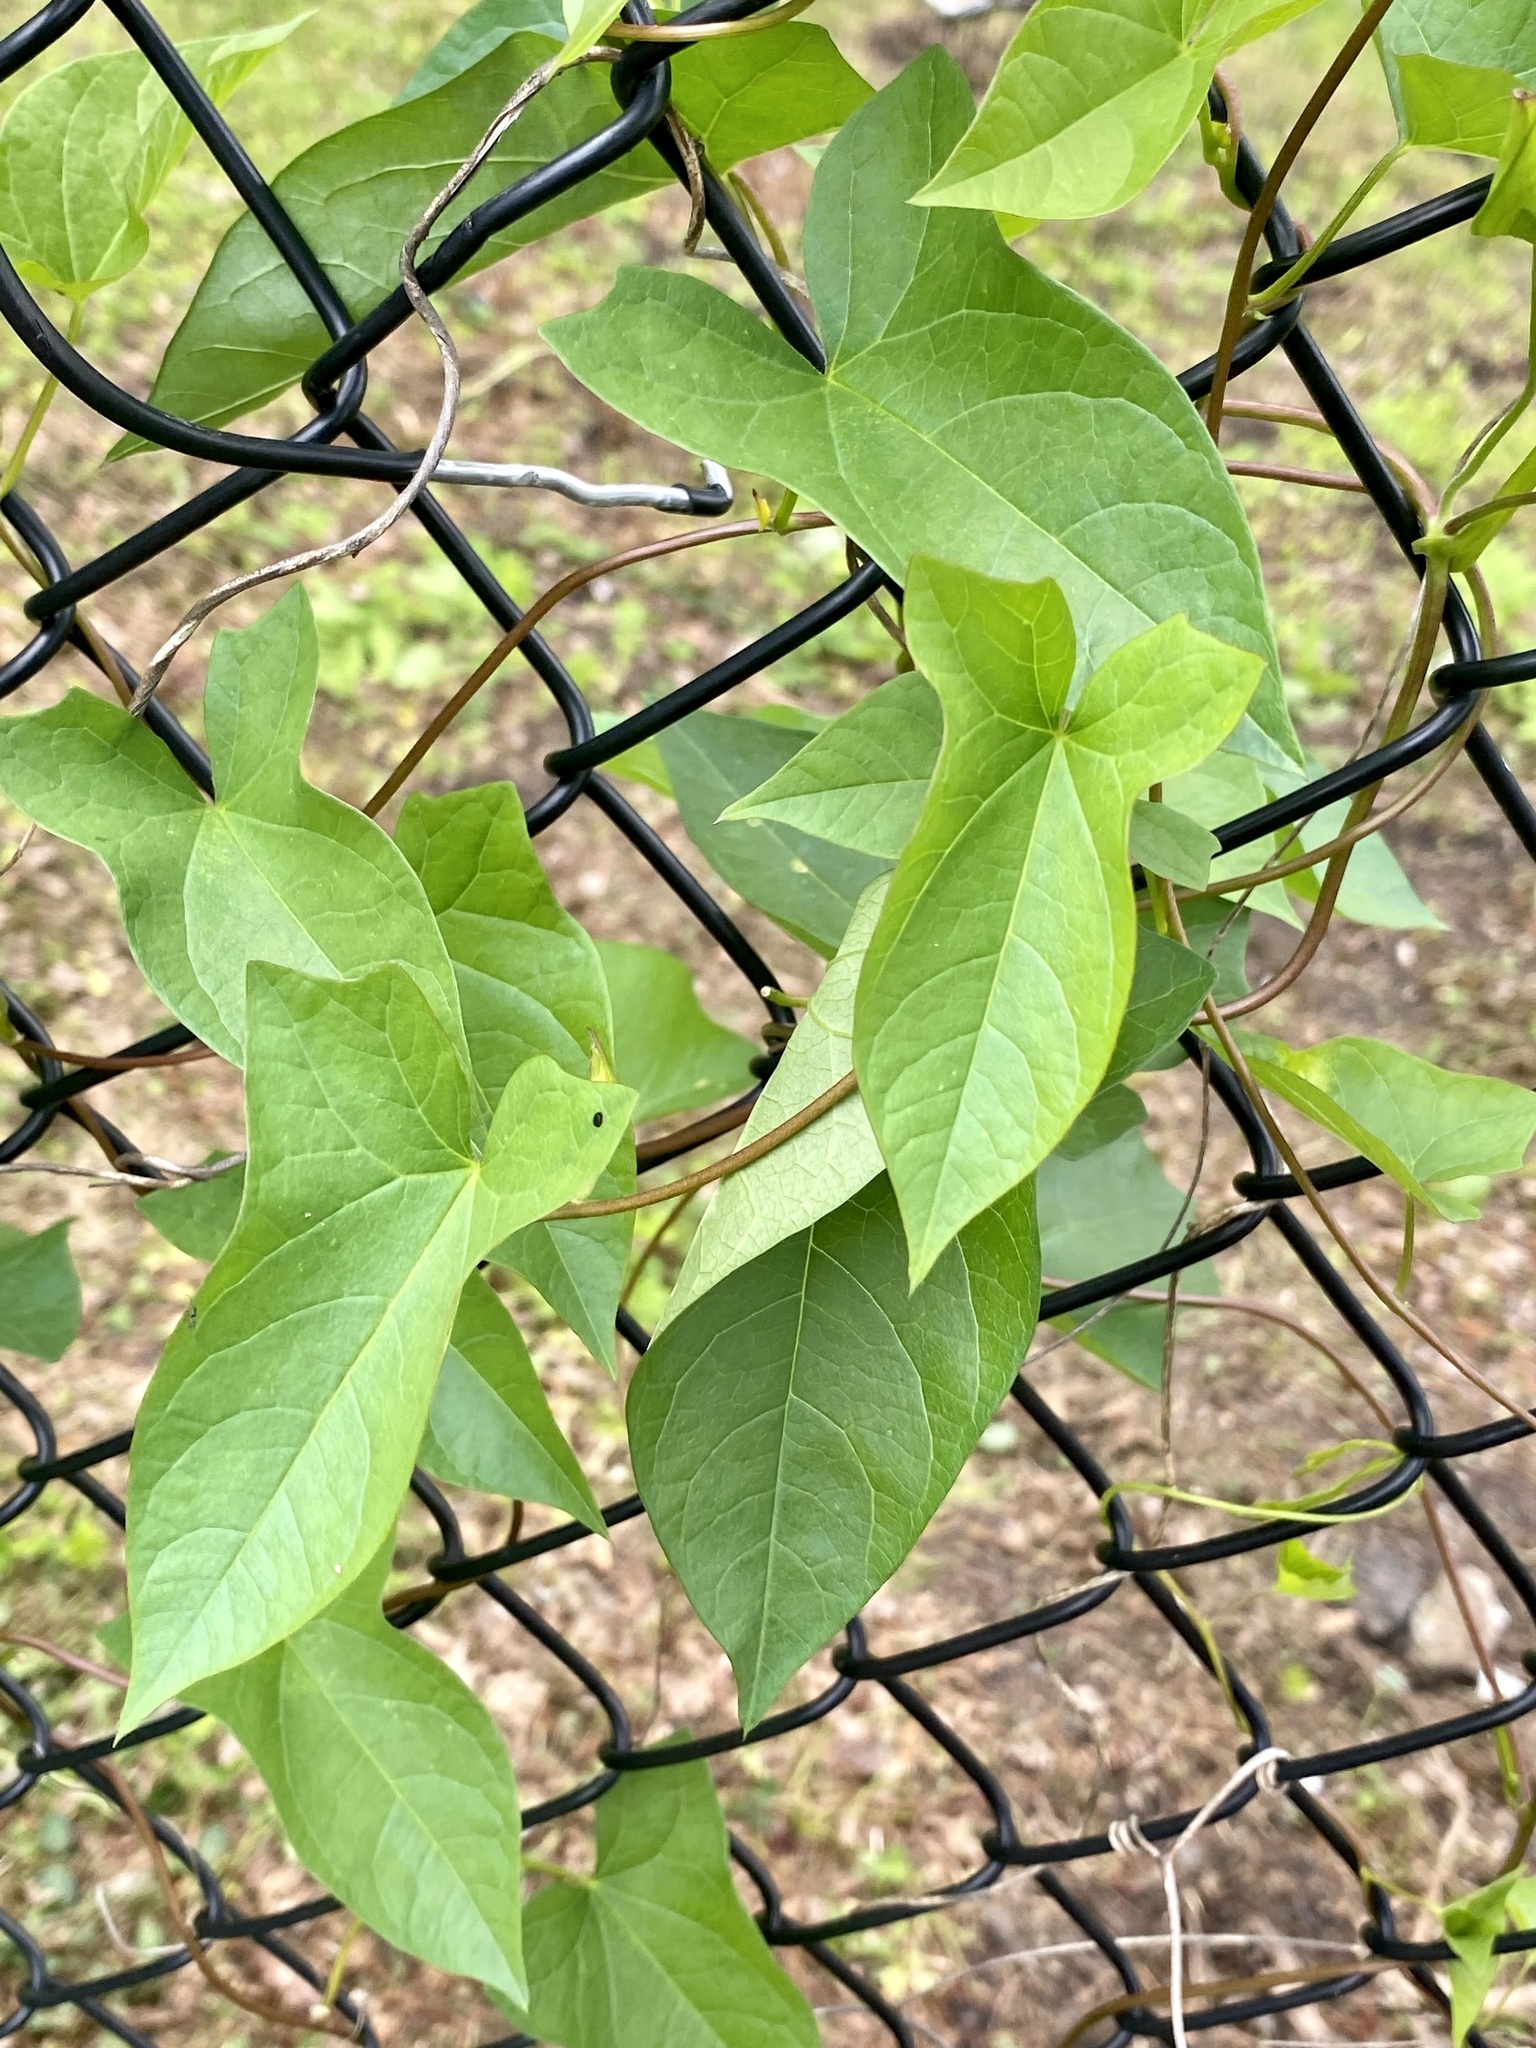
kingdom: Plantae
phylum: Tracheophyta
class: Magnoliopsida
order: Solanales
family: Convolvulaceae
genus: Calystegia
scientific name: Calystegia sepium
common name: Hedge bindweed
